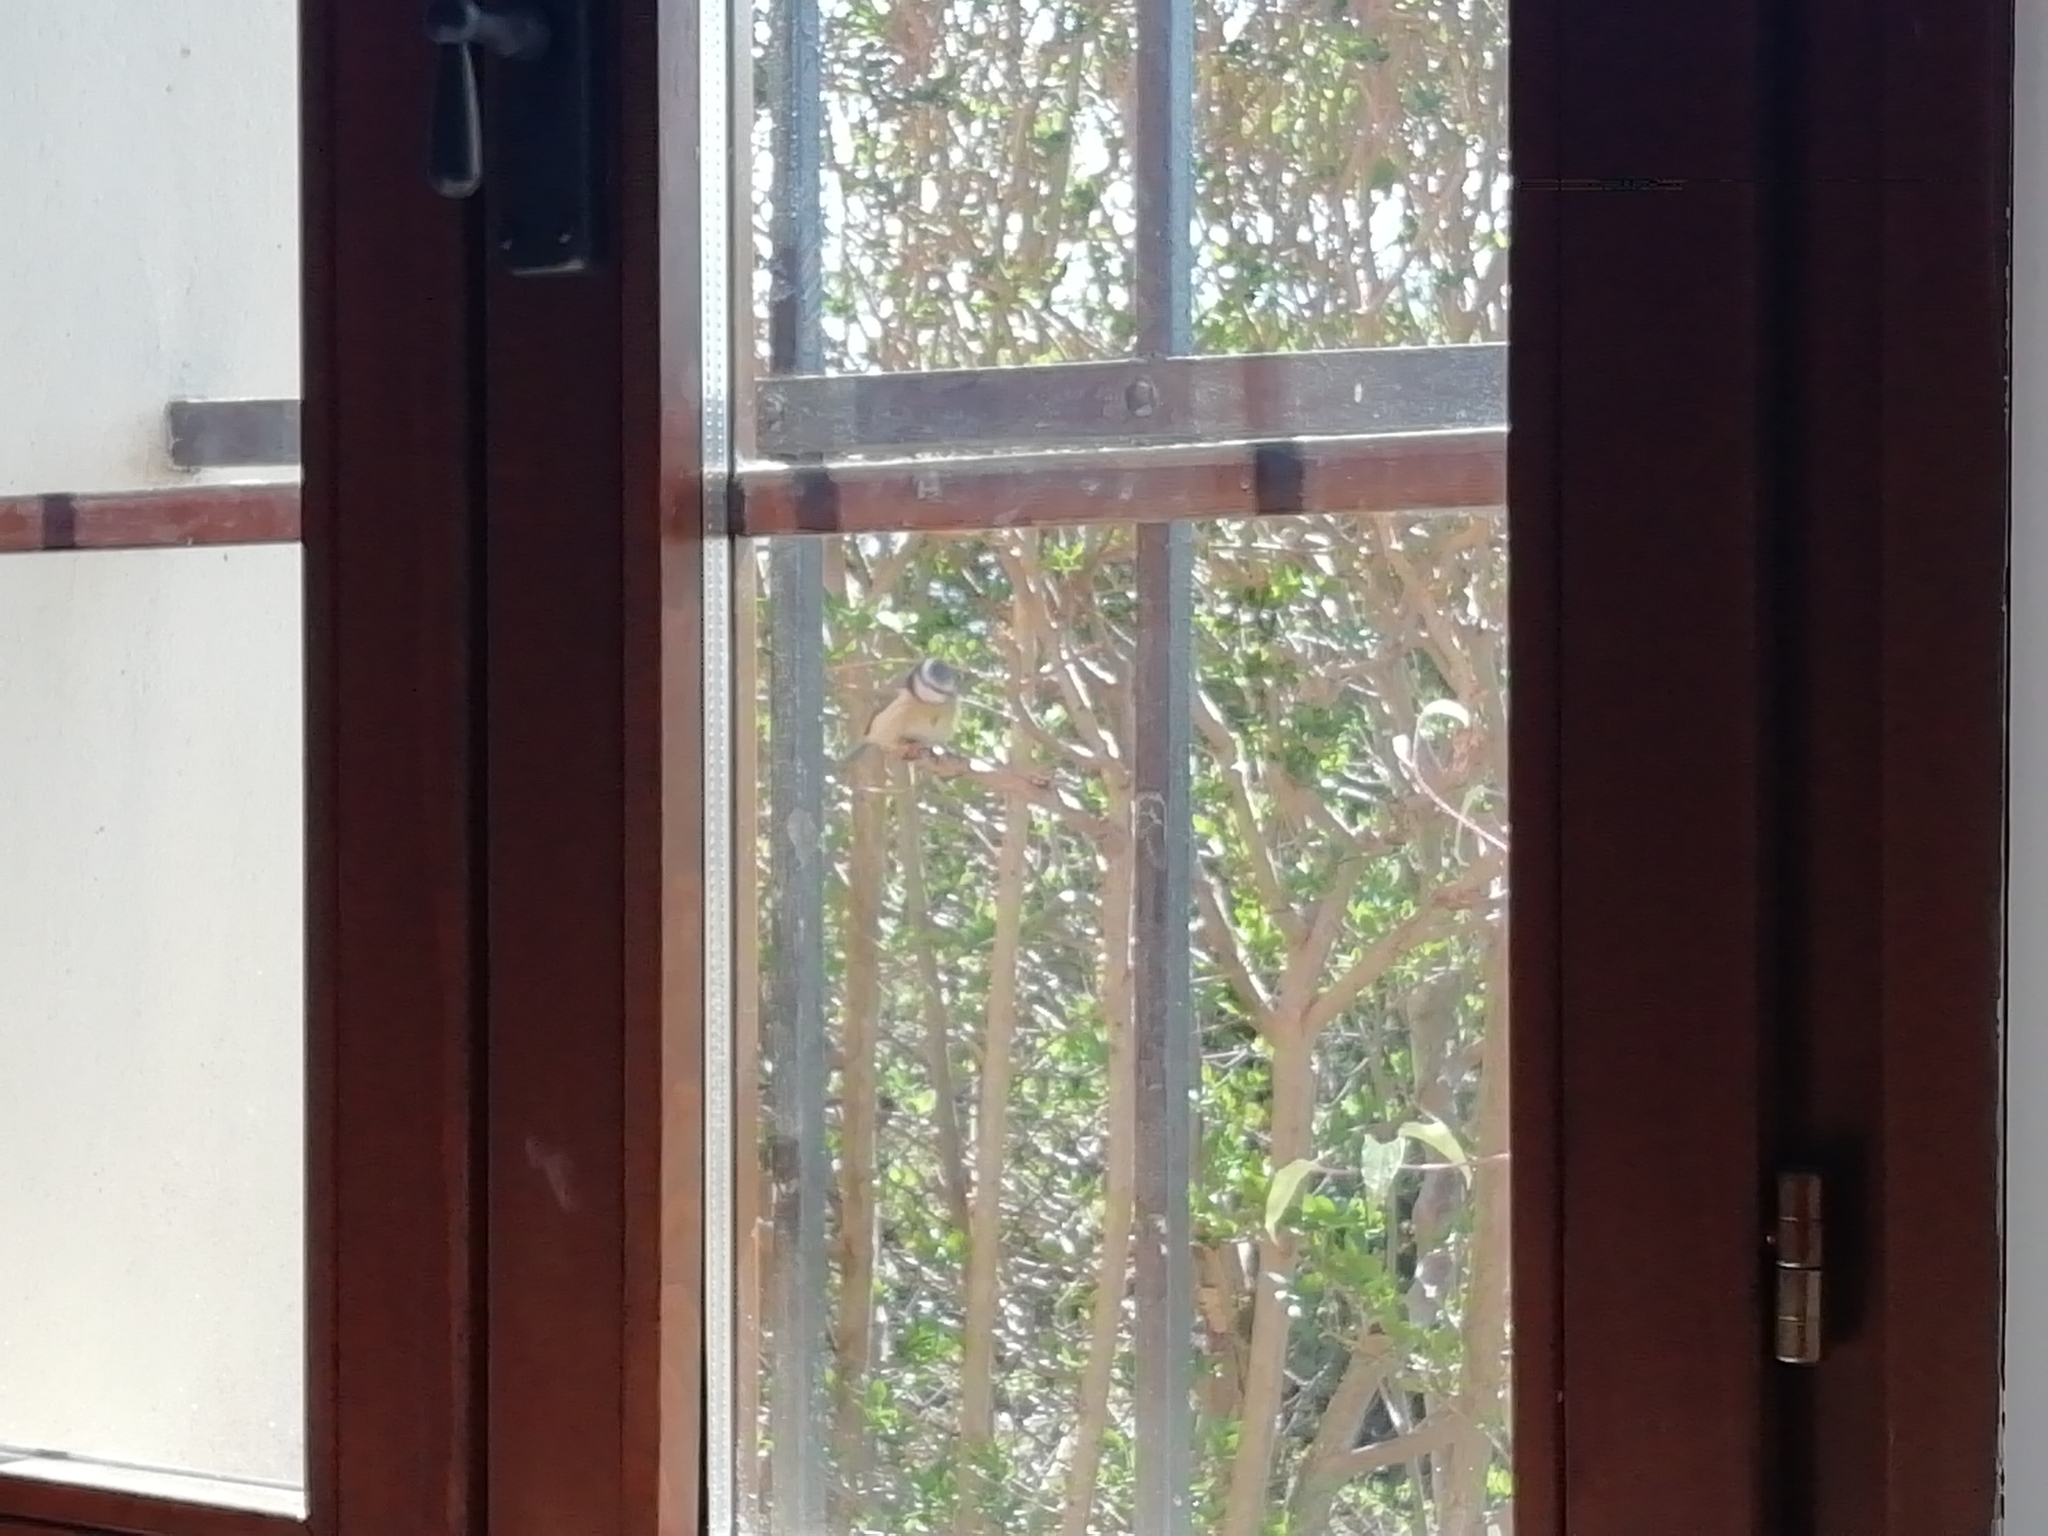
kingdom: Animalia
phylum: Chordata
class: Aves
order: Passeriformes
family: Paridae
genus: Parus
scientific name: Parus major
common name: Great tit
